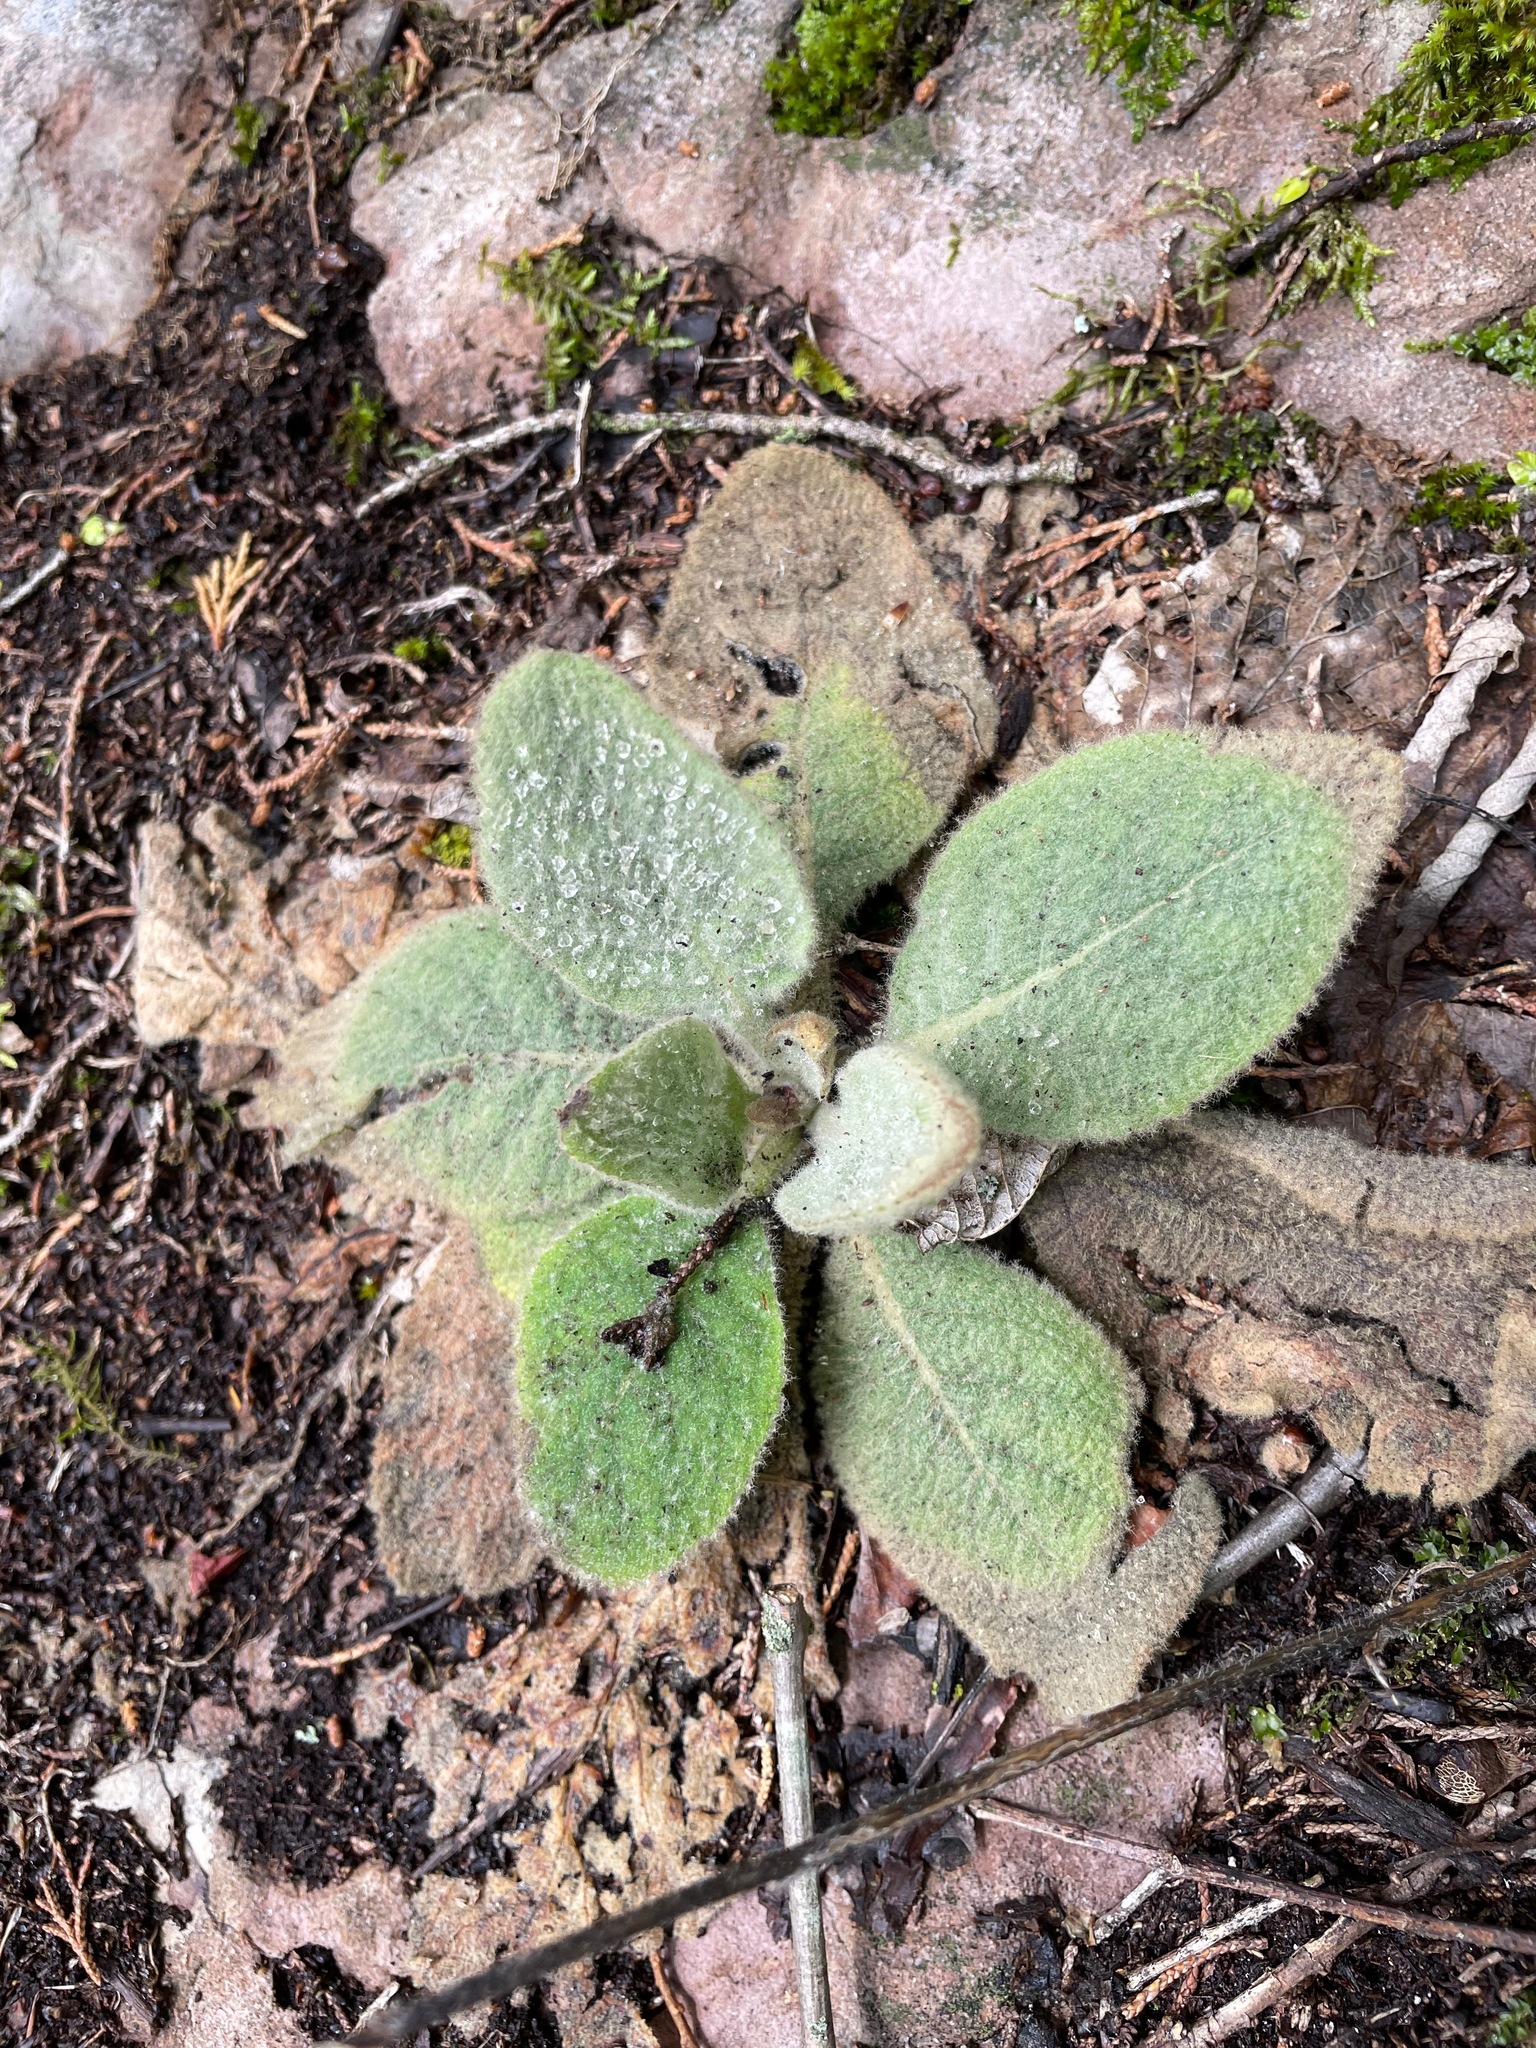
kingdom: Plantae
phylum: Tracheophyta
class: Magnoliopsida
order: Lamiales
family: Scrophulariaceae
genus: Verbascum
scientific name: Verbascum thapsus
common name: Common mullein
